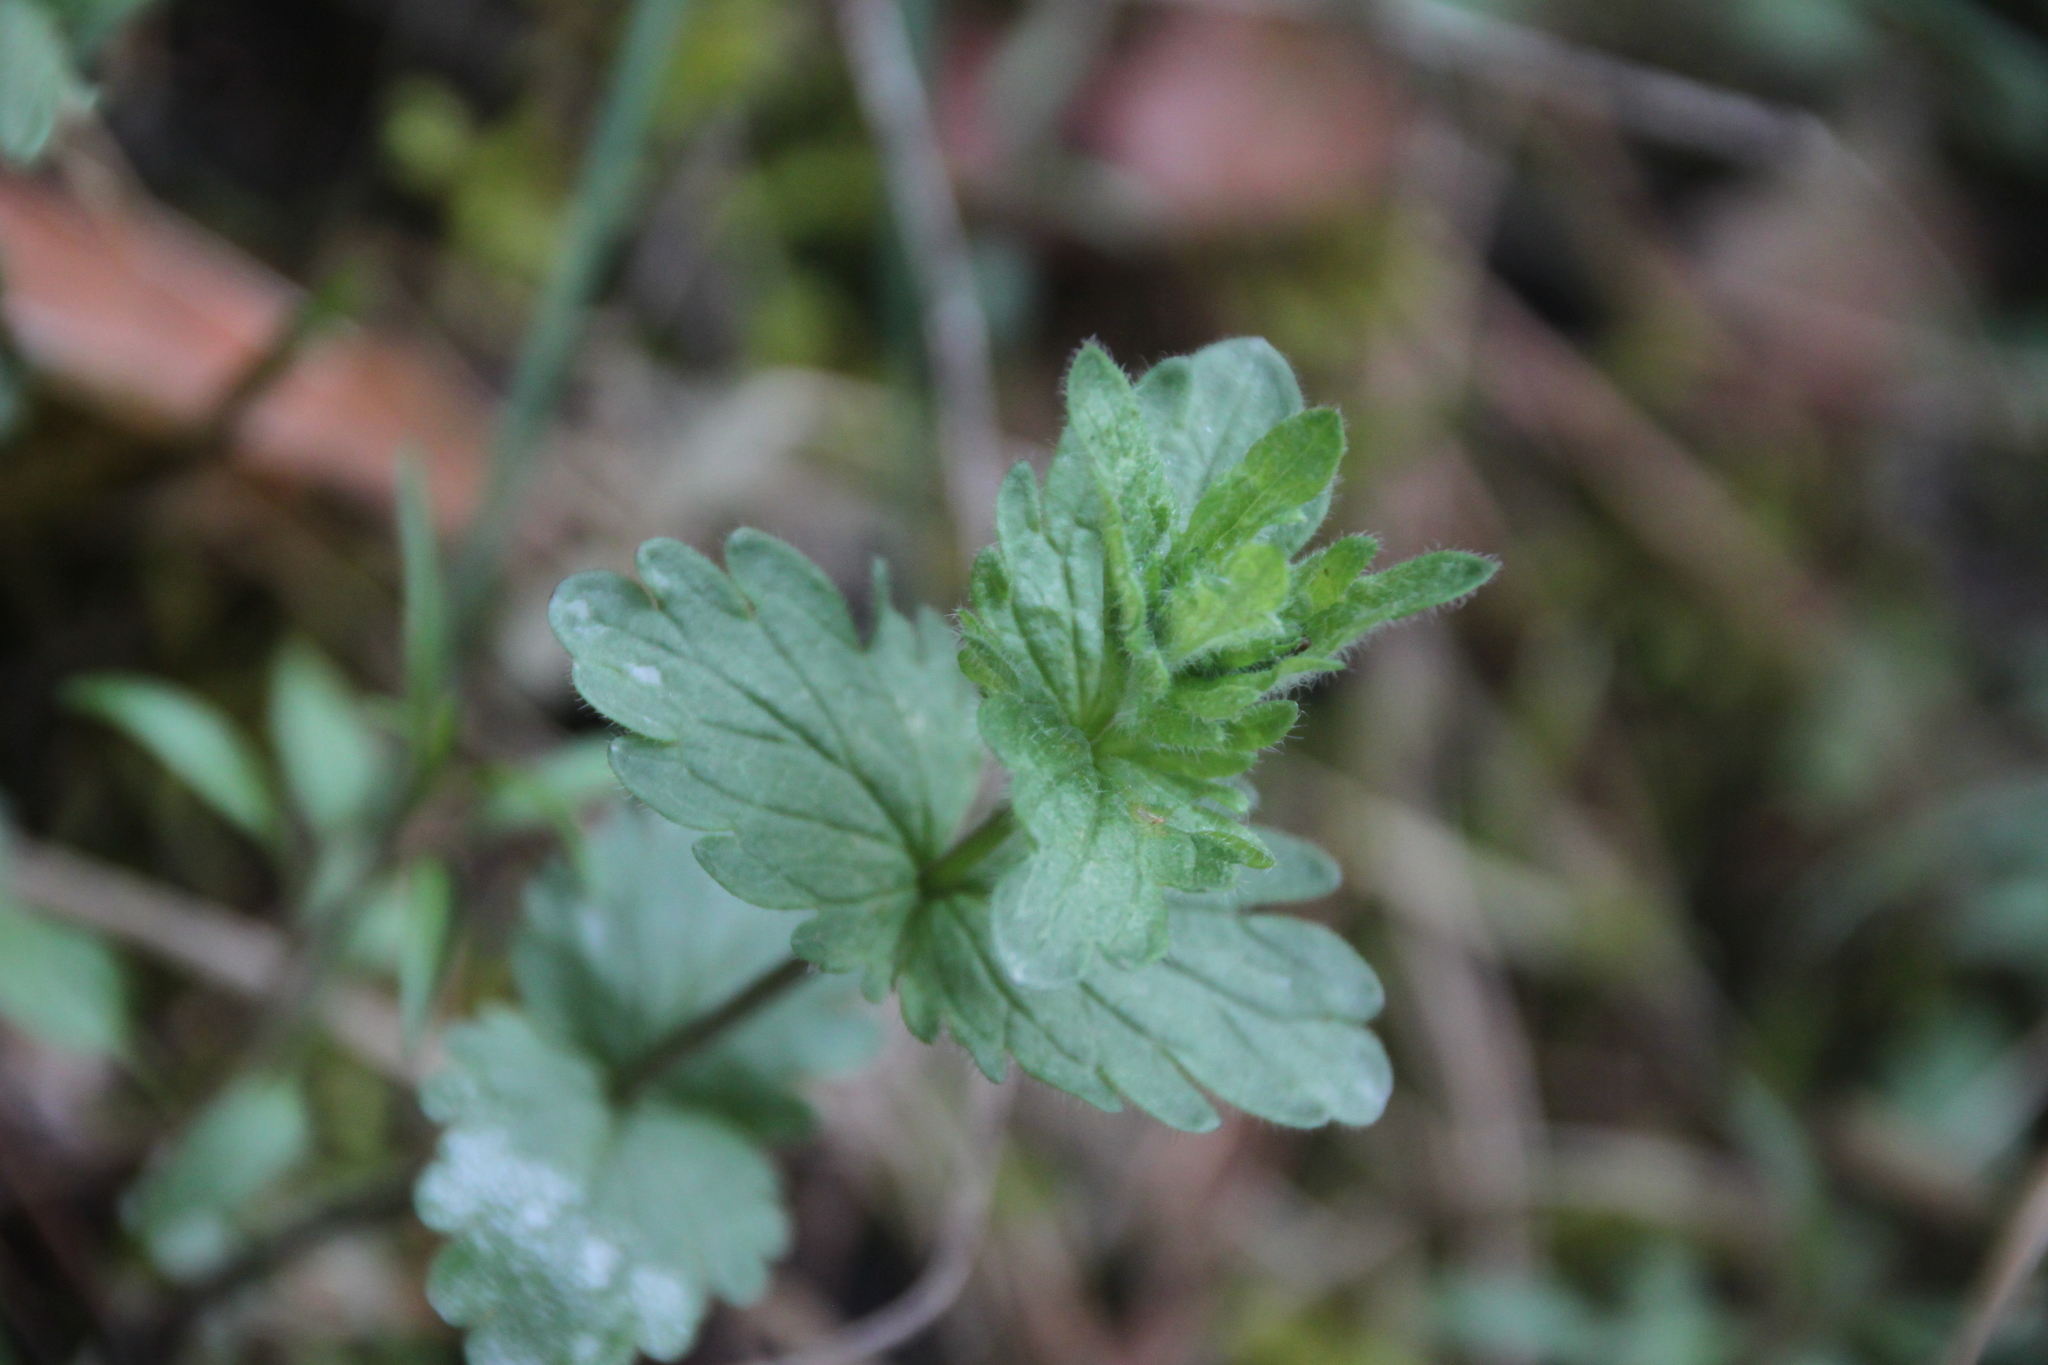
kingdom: Plantae
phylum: Tracheophyta
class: Magnoliopsida
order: Lamiales
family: Plantaginaceae
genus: Veronica
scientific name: Veronica chamaedrys
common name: Germander speedwell
